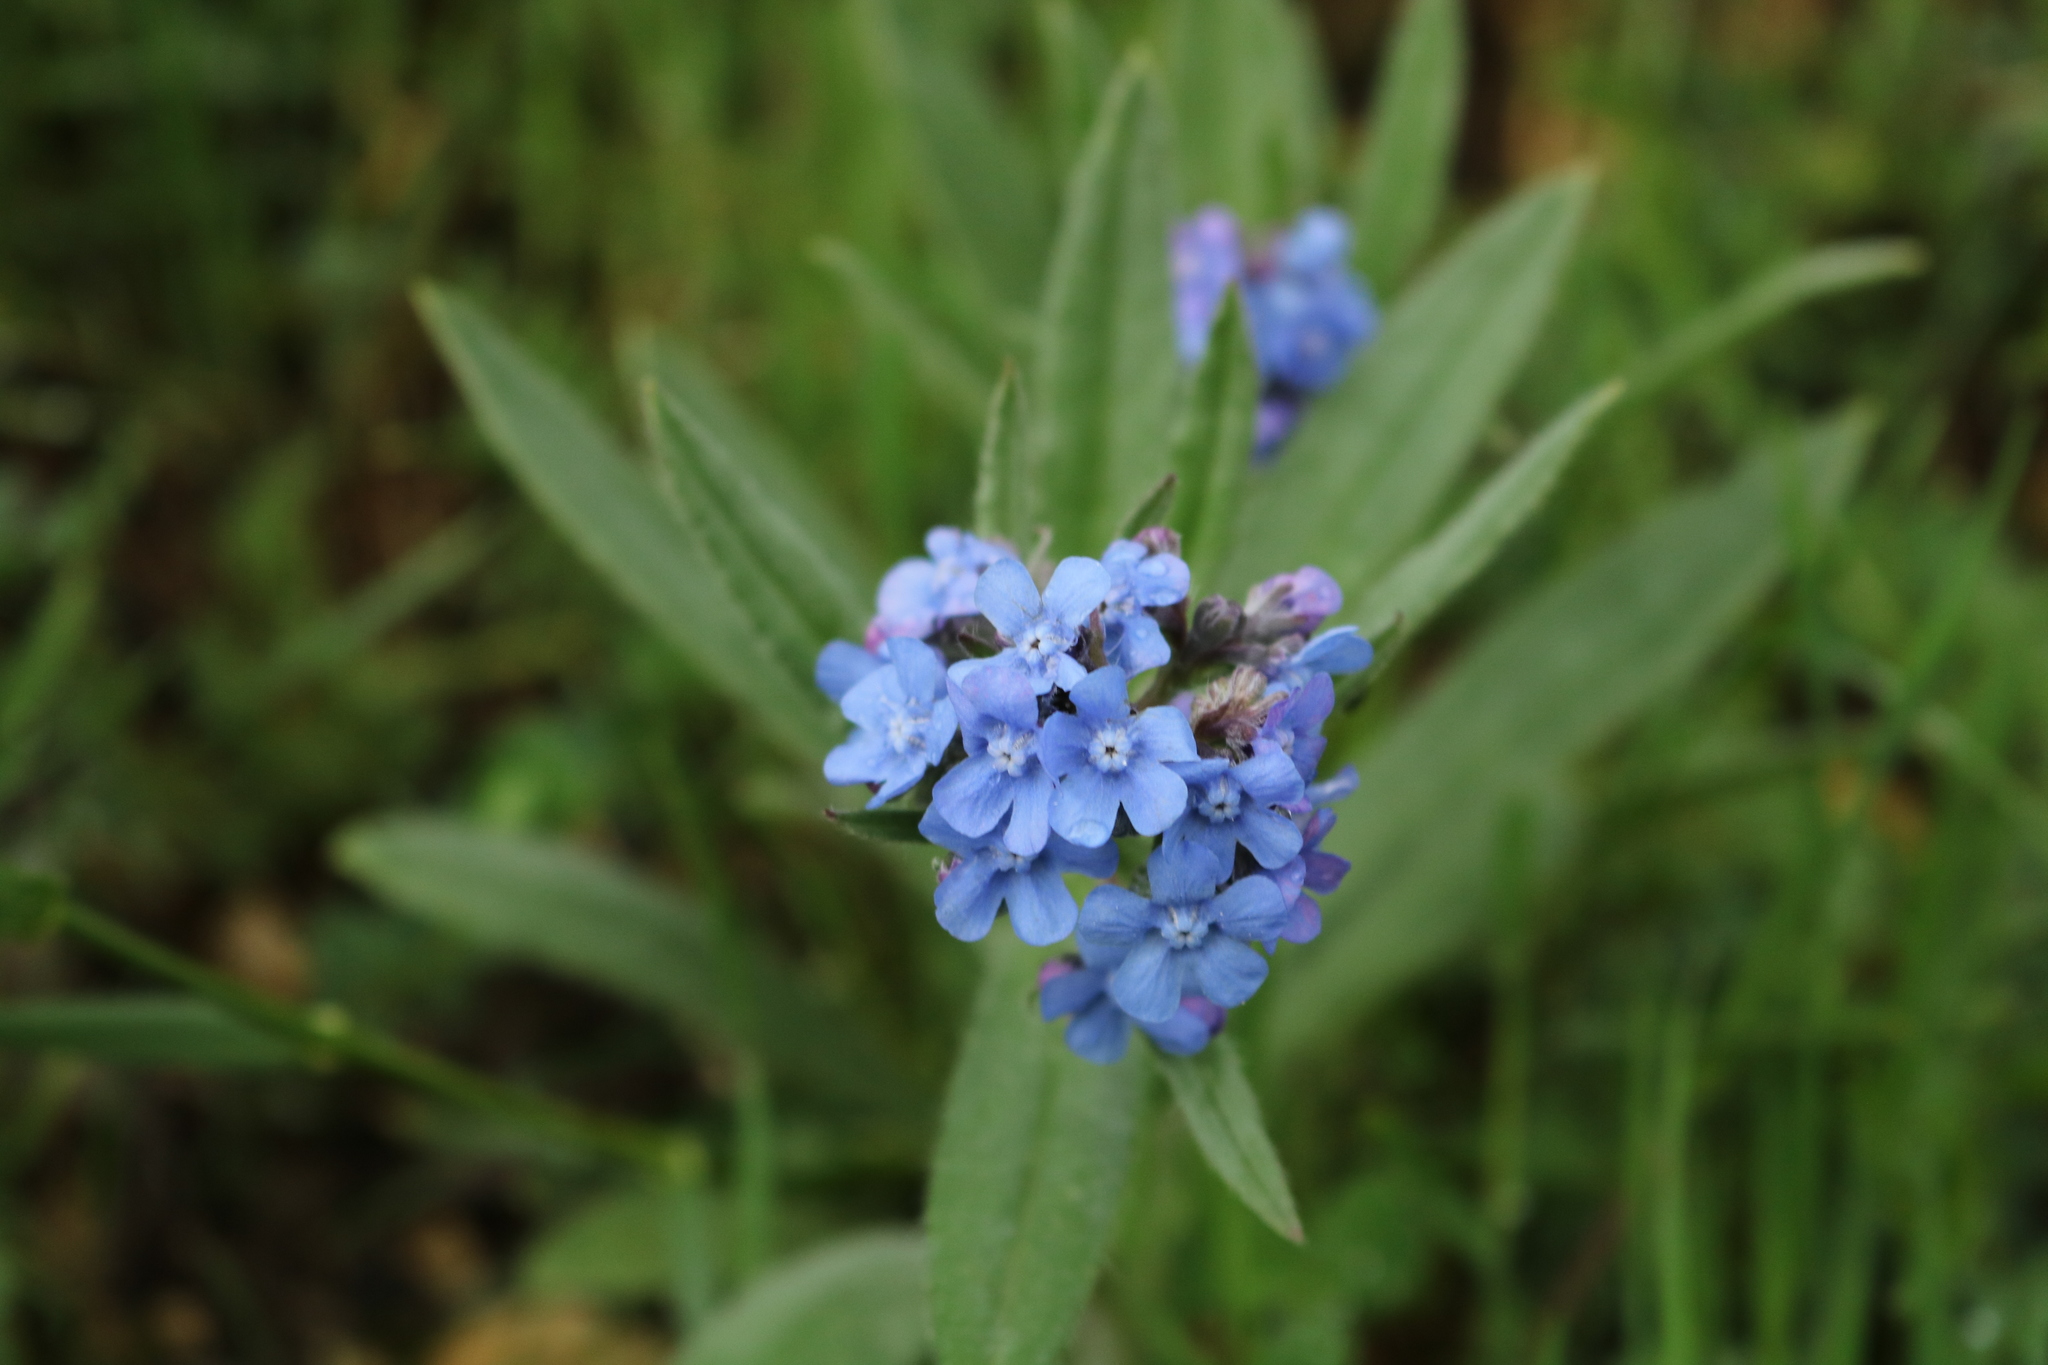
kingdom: Plantae
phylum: Tracheophyta
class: Magnoliopsida
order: Boraginales
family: Boraginaceae
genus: Cynoglottis
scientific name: Cynoglottis barrelieri
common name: False alkanet
